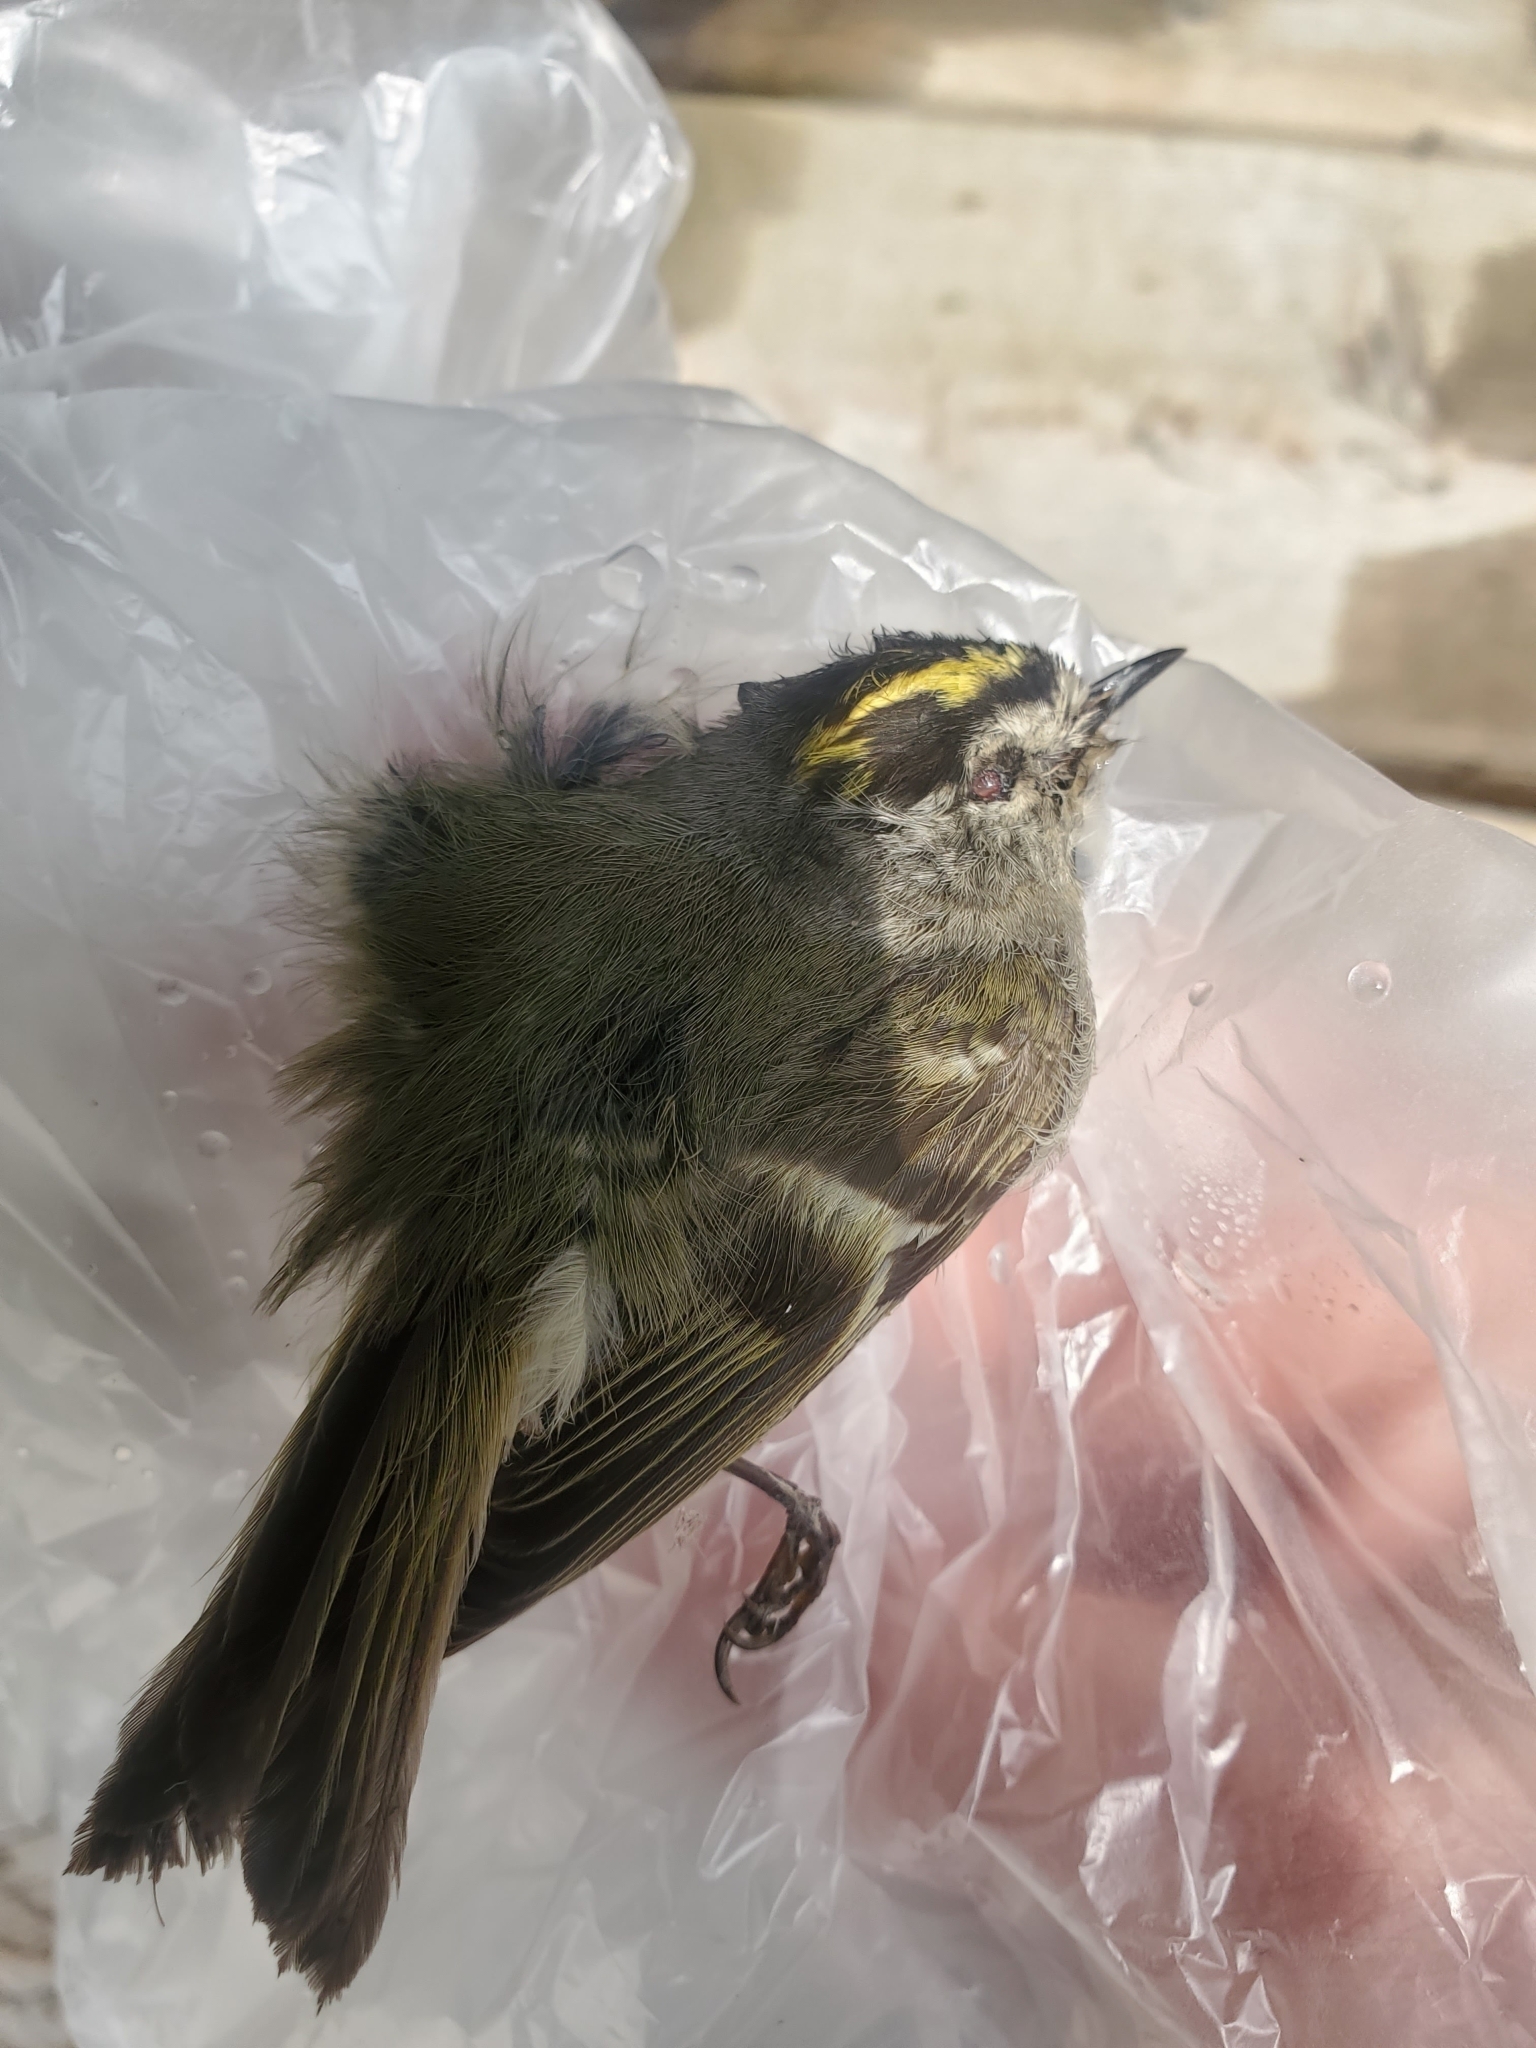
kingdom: Animalia
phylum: Chordata
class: Aves
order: Passeriformes
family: Regulidae
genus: Regulus
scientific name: Regulus satrapa
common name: Golden-crowned kinglet
